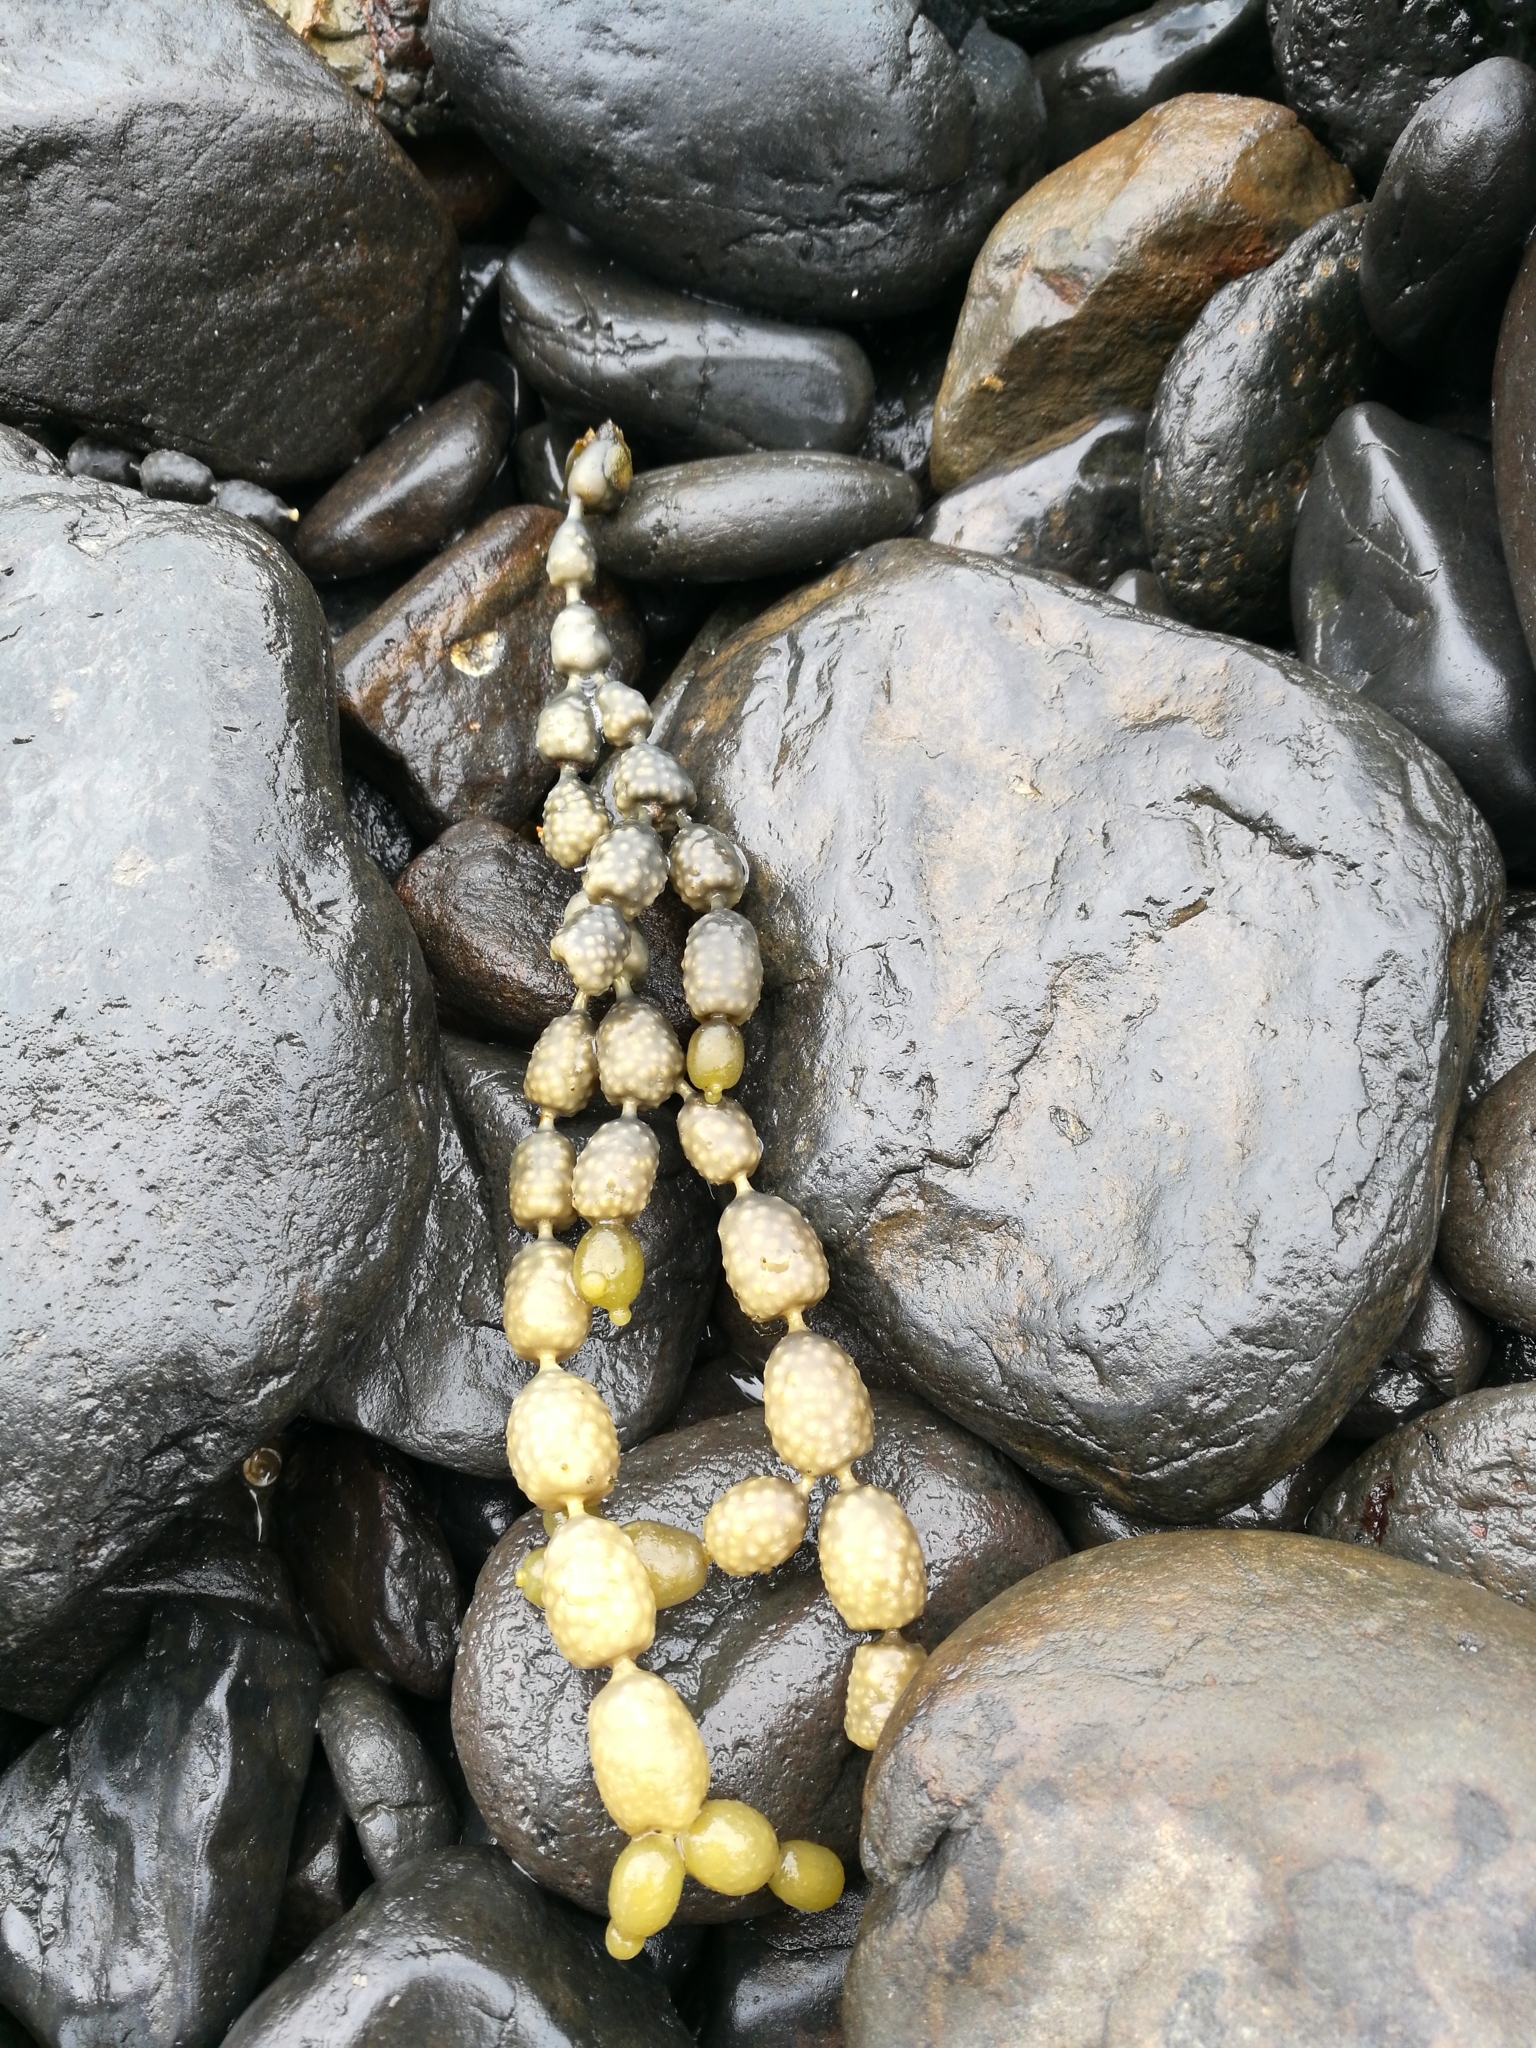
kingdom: Chromista
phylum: Ochrophyta
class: Phaeophyceae
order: Fucales
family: Hormosiraceae
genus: Hormosira
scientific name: Hormosira banksii
